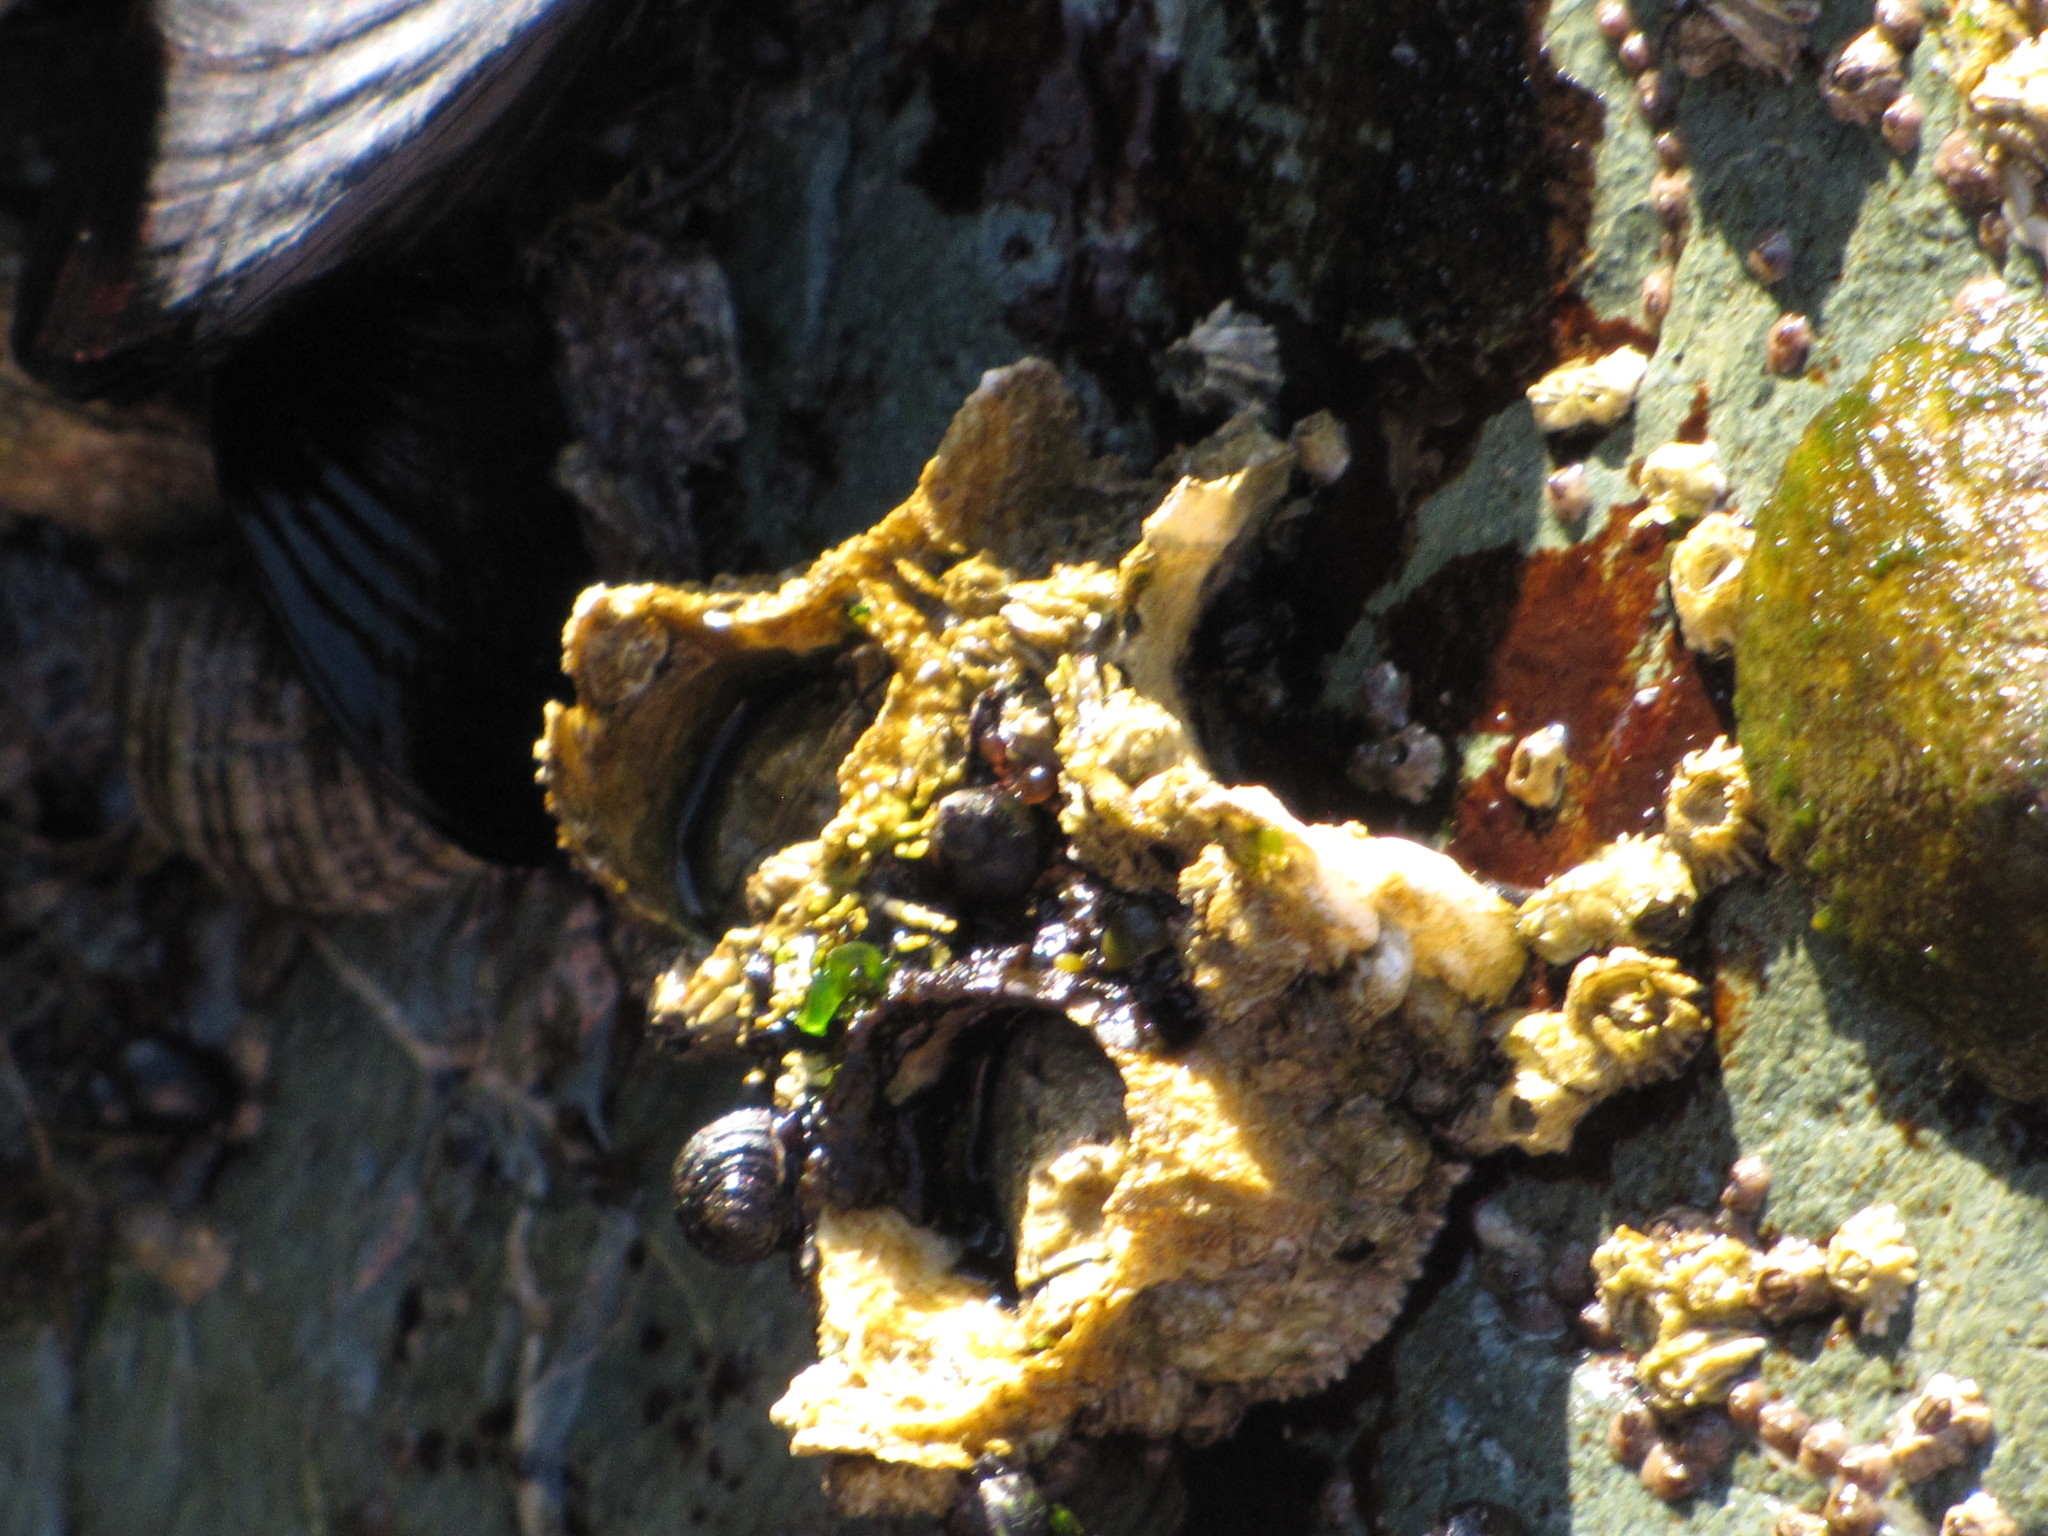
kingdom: Animalia
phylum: Arthropoda
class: Maxillopoda
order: Sessilia
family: Archaeobalanidae
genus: Semibalanus
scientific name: Semibalanus cariosus
